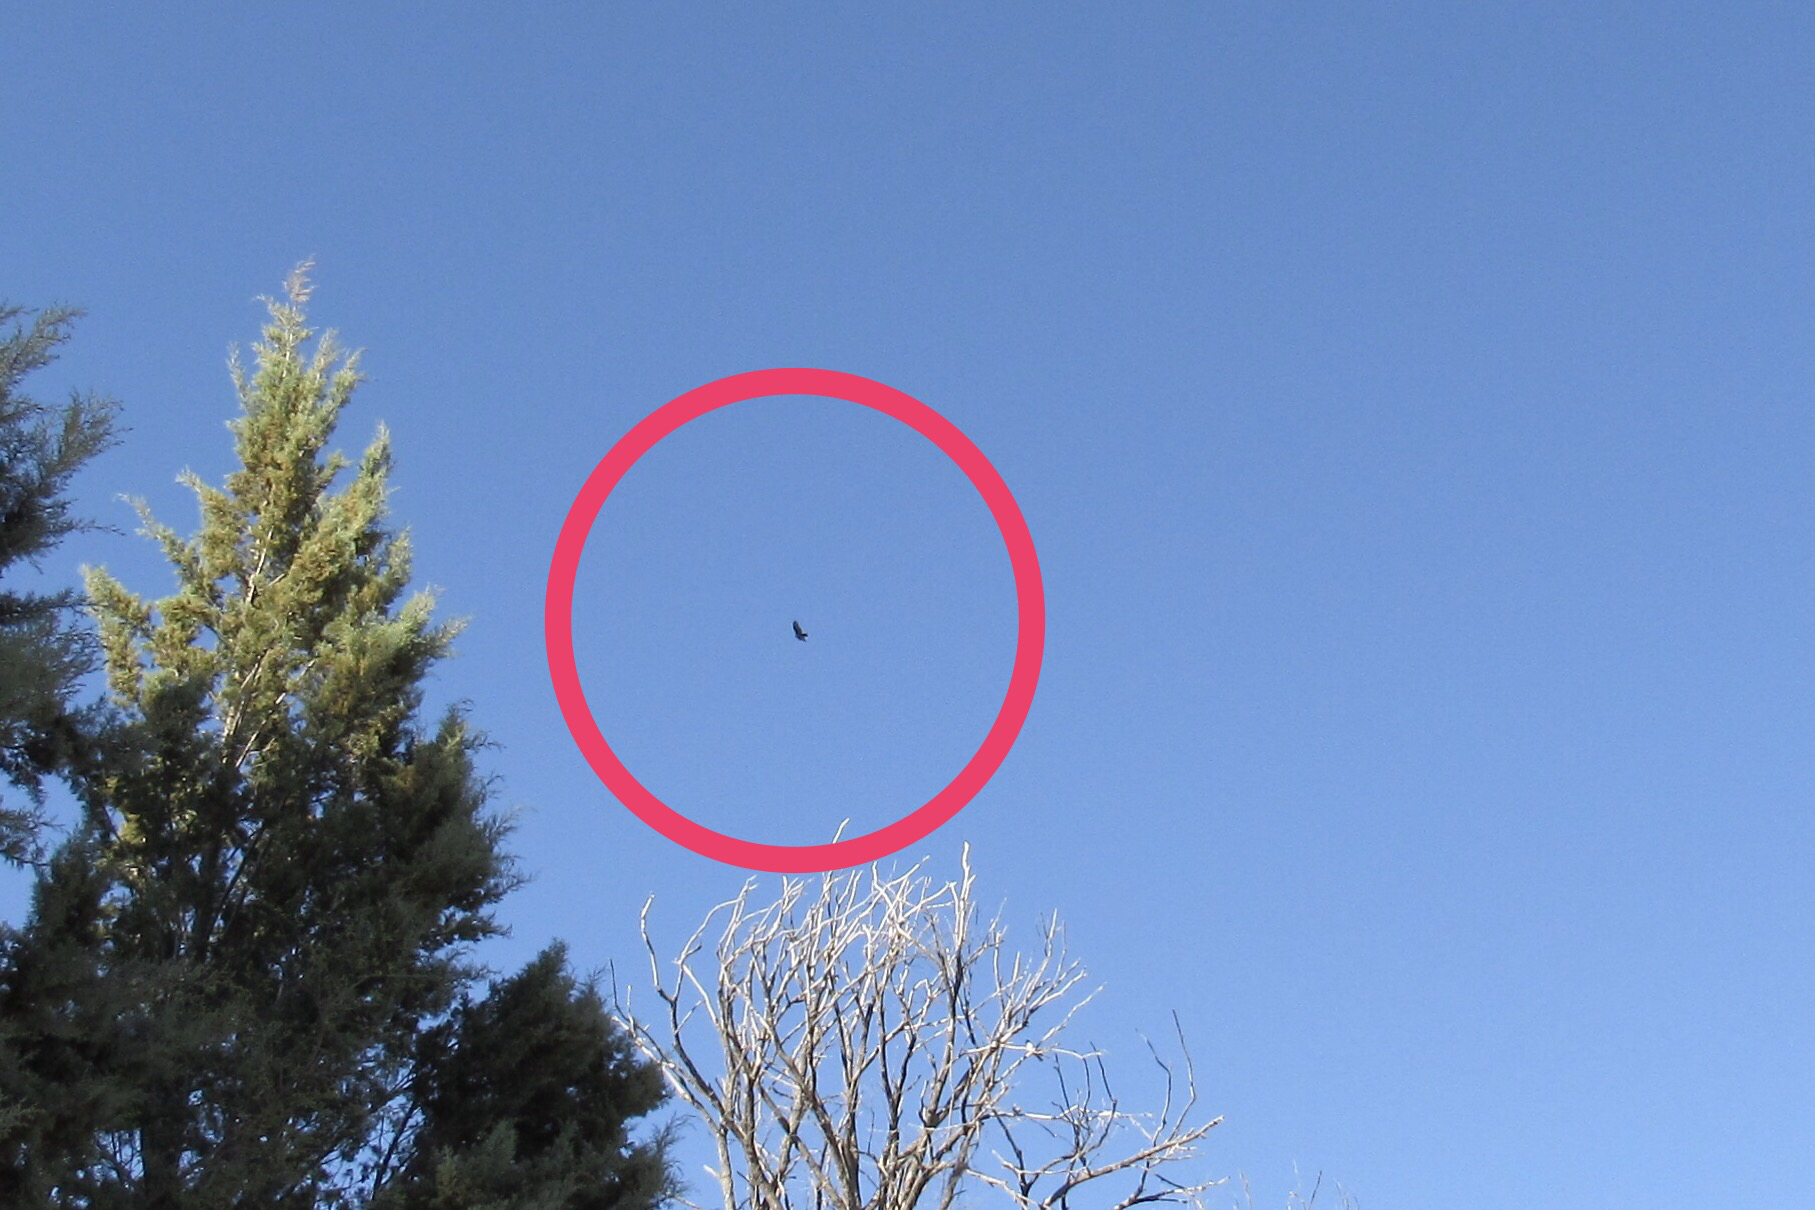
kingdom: Animalia
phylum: Chordata
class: Aves
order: Accipitriformes
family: Cathartidae
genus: Cathartes
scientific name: Cathartes aura
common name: Turkey vulture
